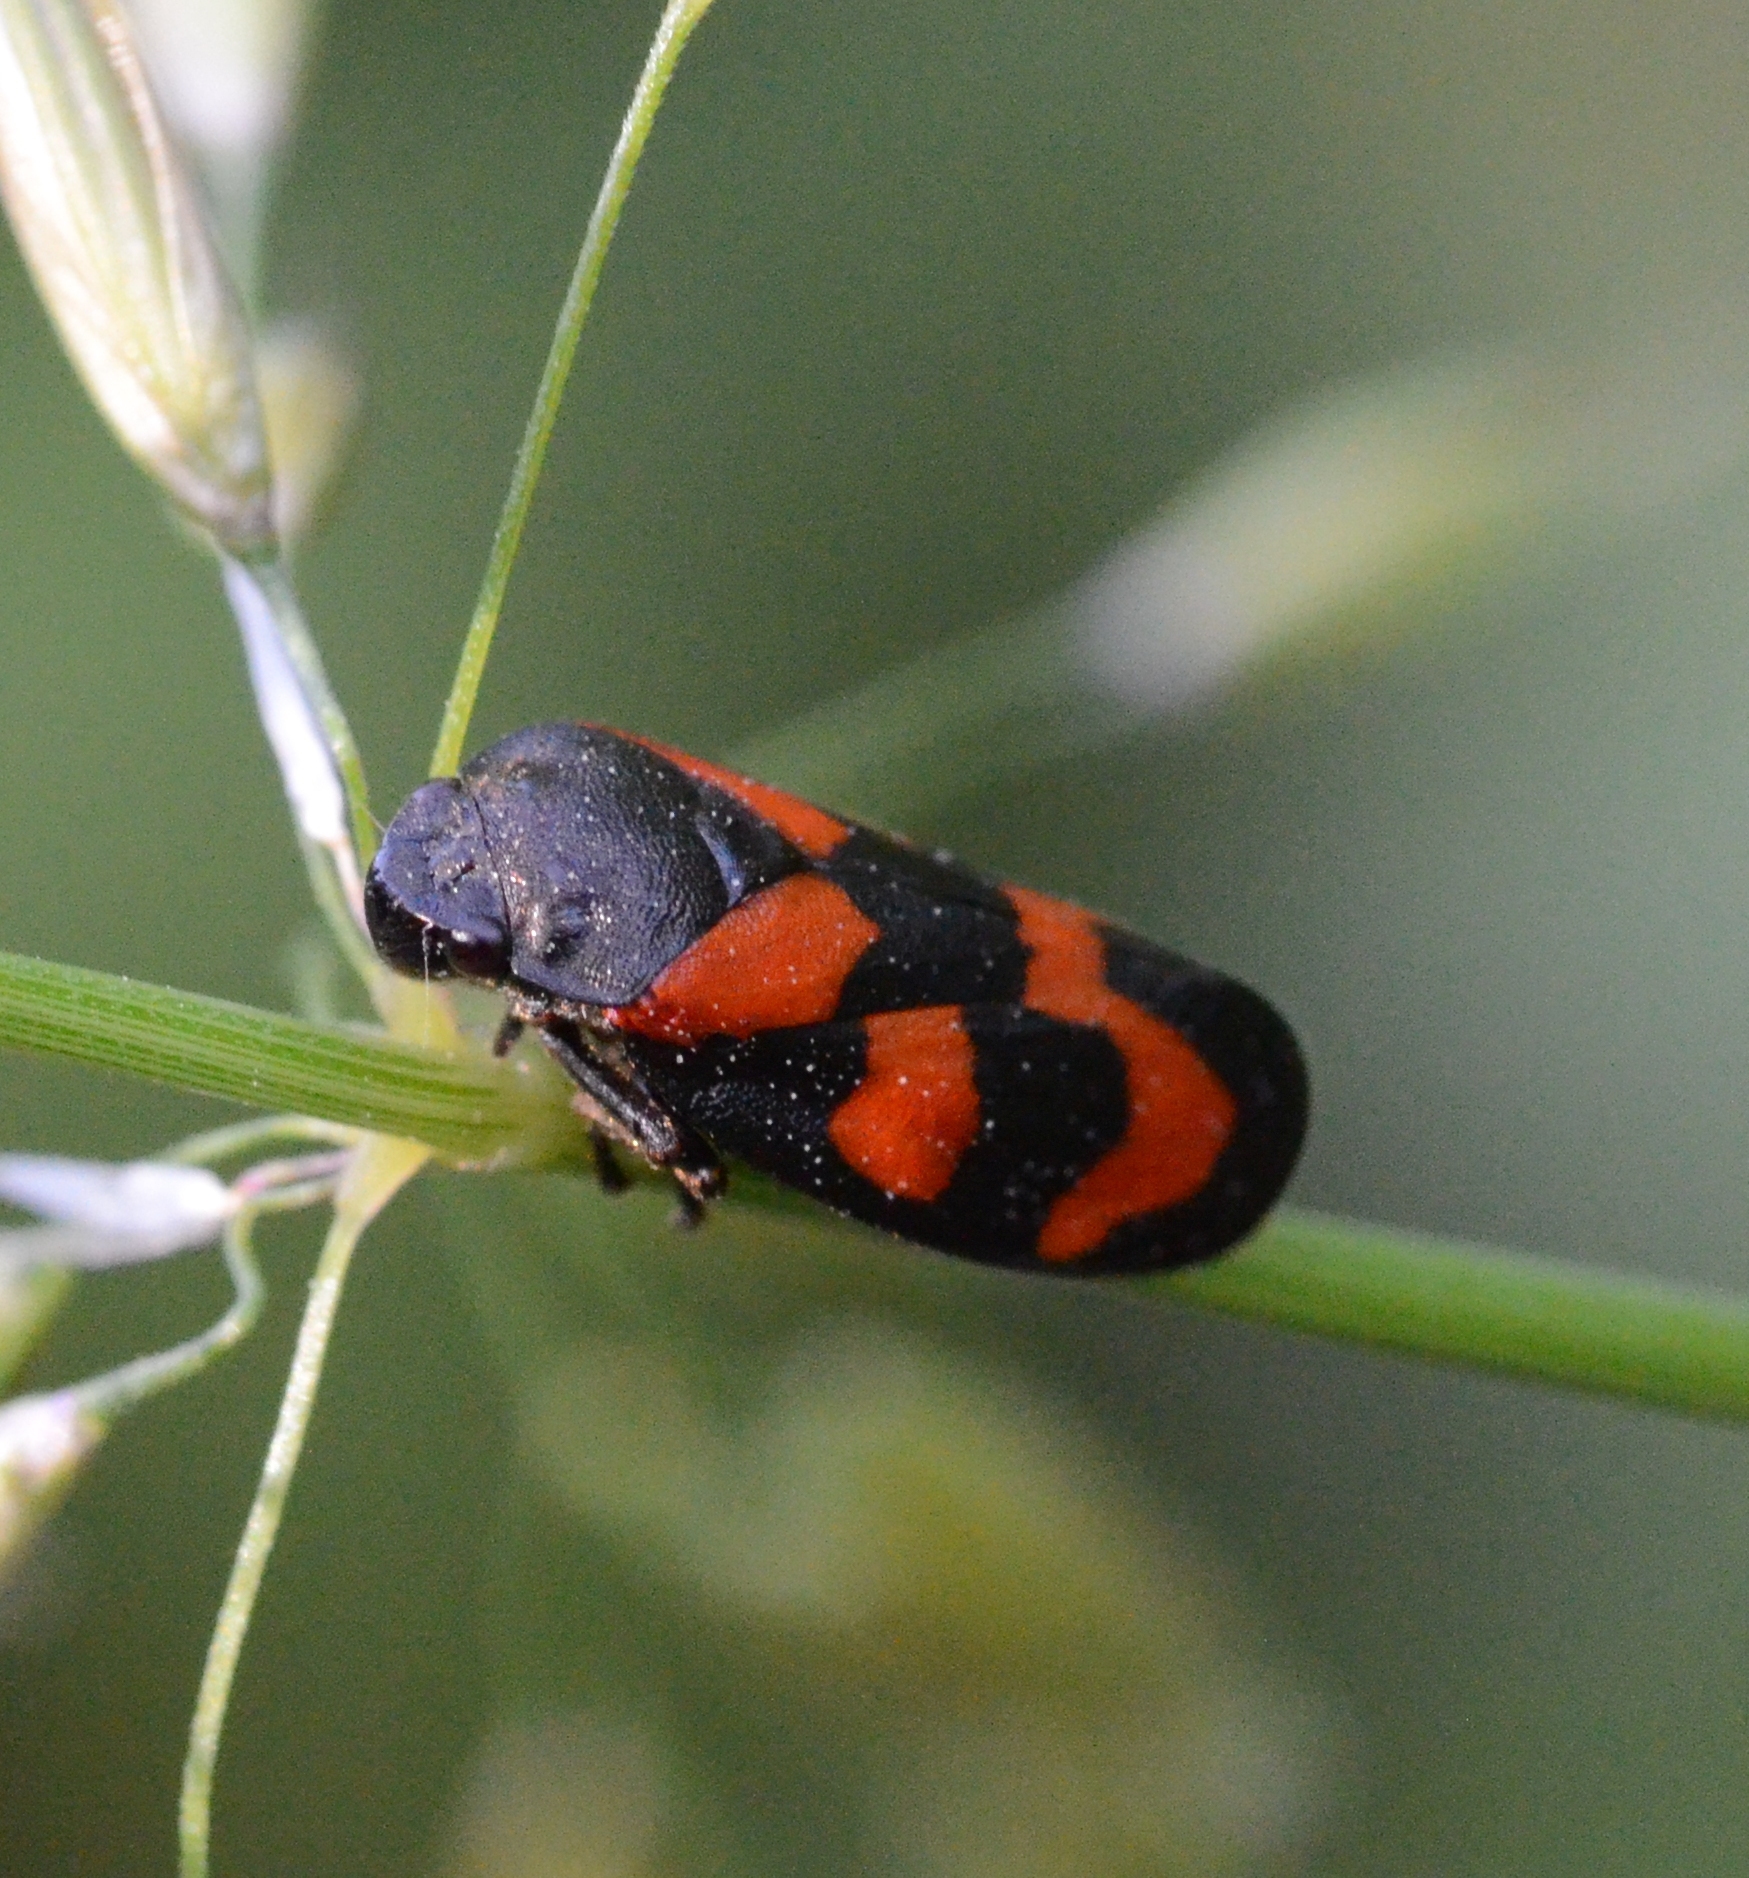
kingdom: Animalia
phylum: Arthropoda
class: Insecta
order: Hemiptera
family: Cercopidae
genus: Cercopis
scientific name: Cercopis vulnerata
